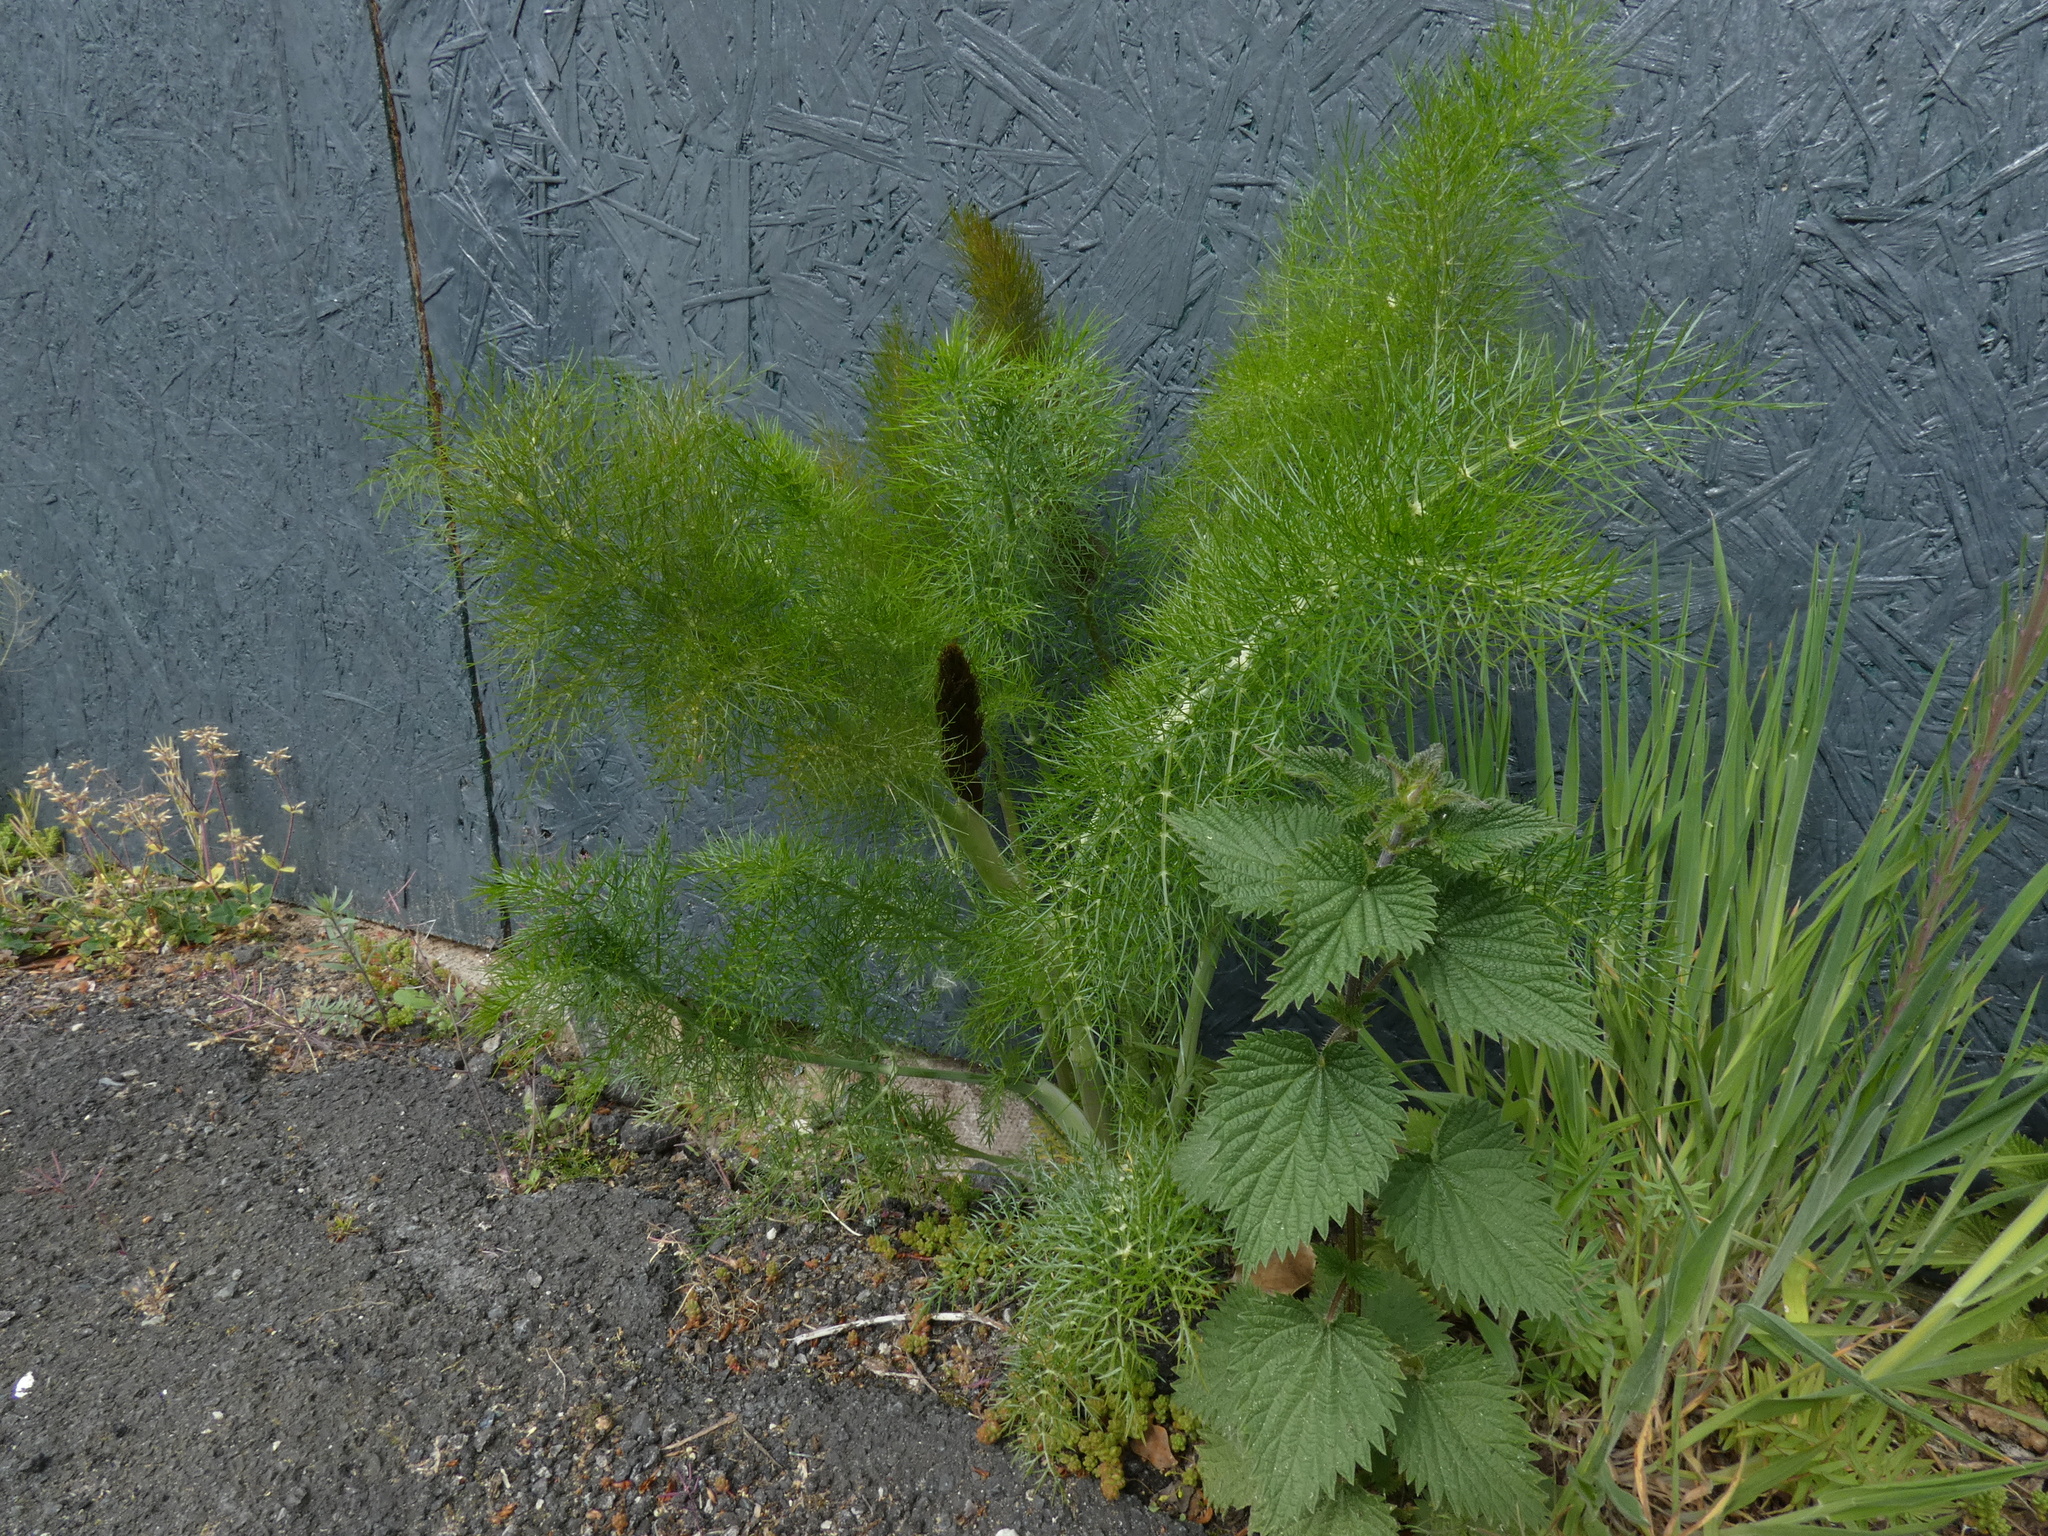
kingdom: Plantae
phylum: Tracheophyta
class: Magnoliopsida
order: Apiales
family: Apiaceae
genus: Foeniculum
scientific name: Foeniculum vulgare
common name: Fennel
